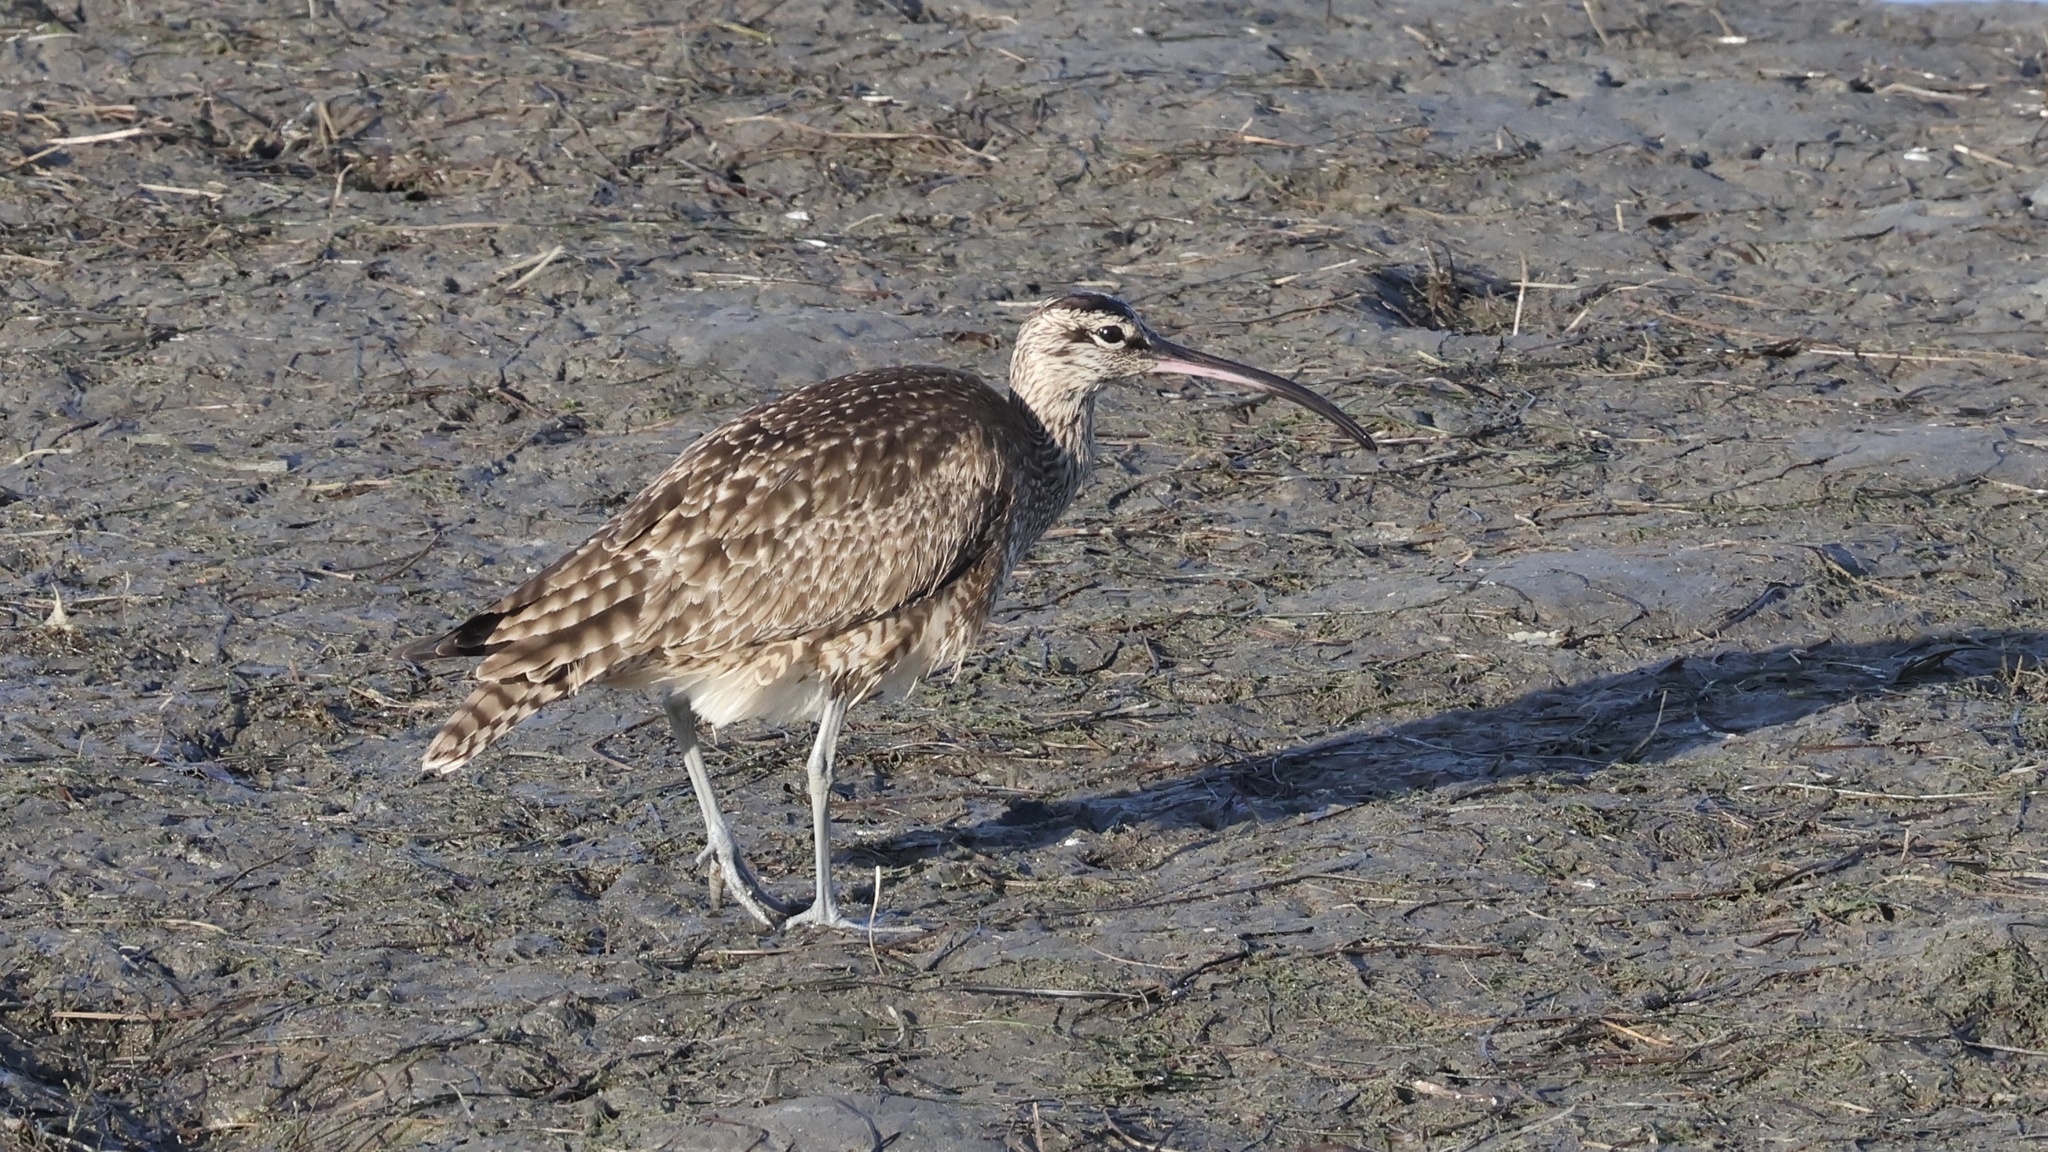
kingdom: Animalia
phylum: Chordata
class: Aves
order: Charadriiformes
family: Scolopacidae
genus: Numenius
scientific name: Numenius phaeopus
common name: Whimbrel
